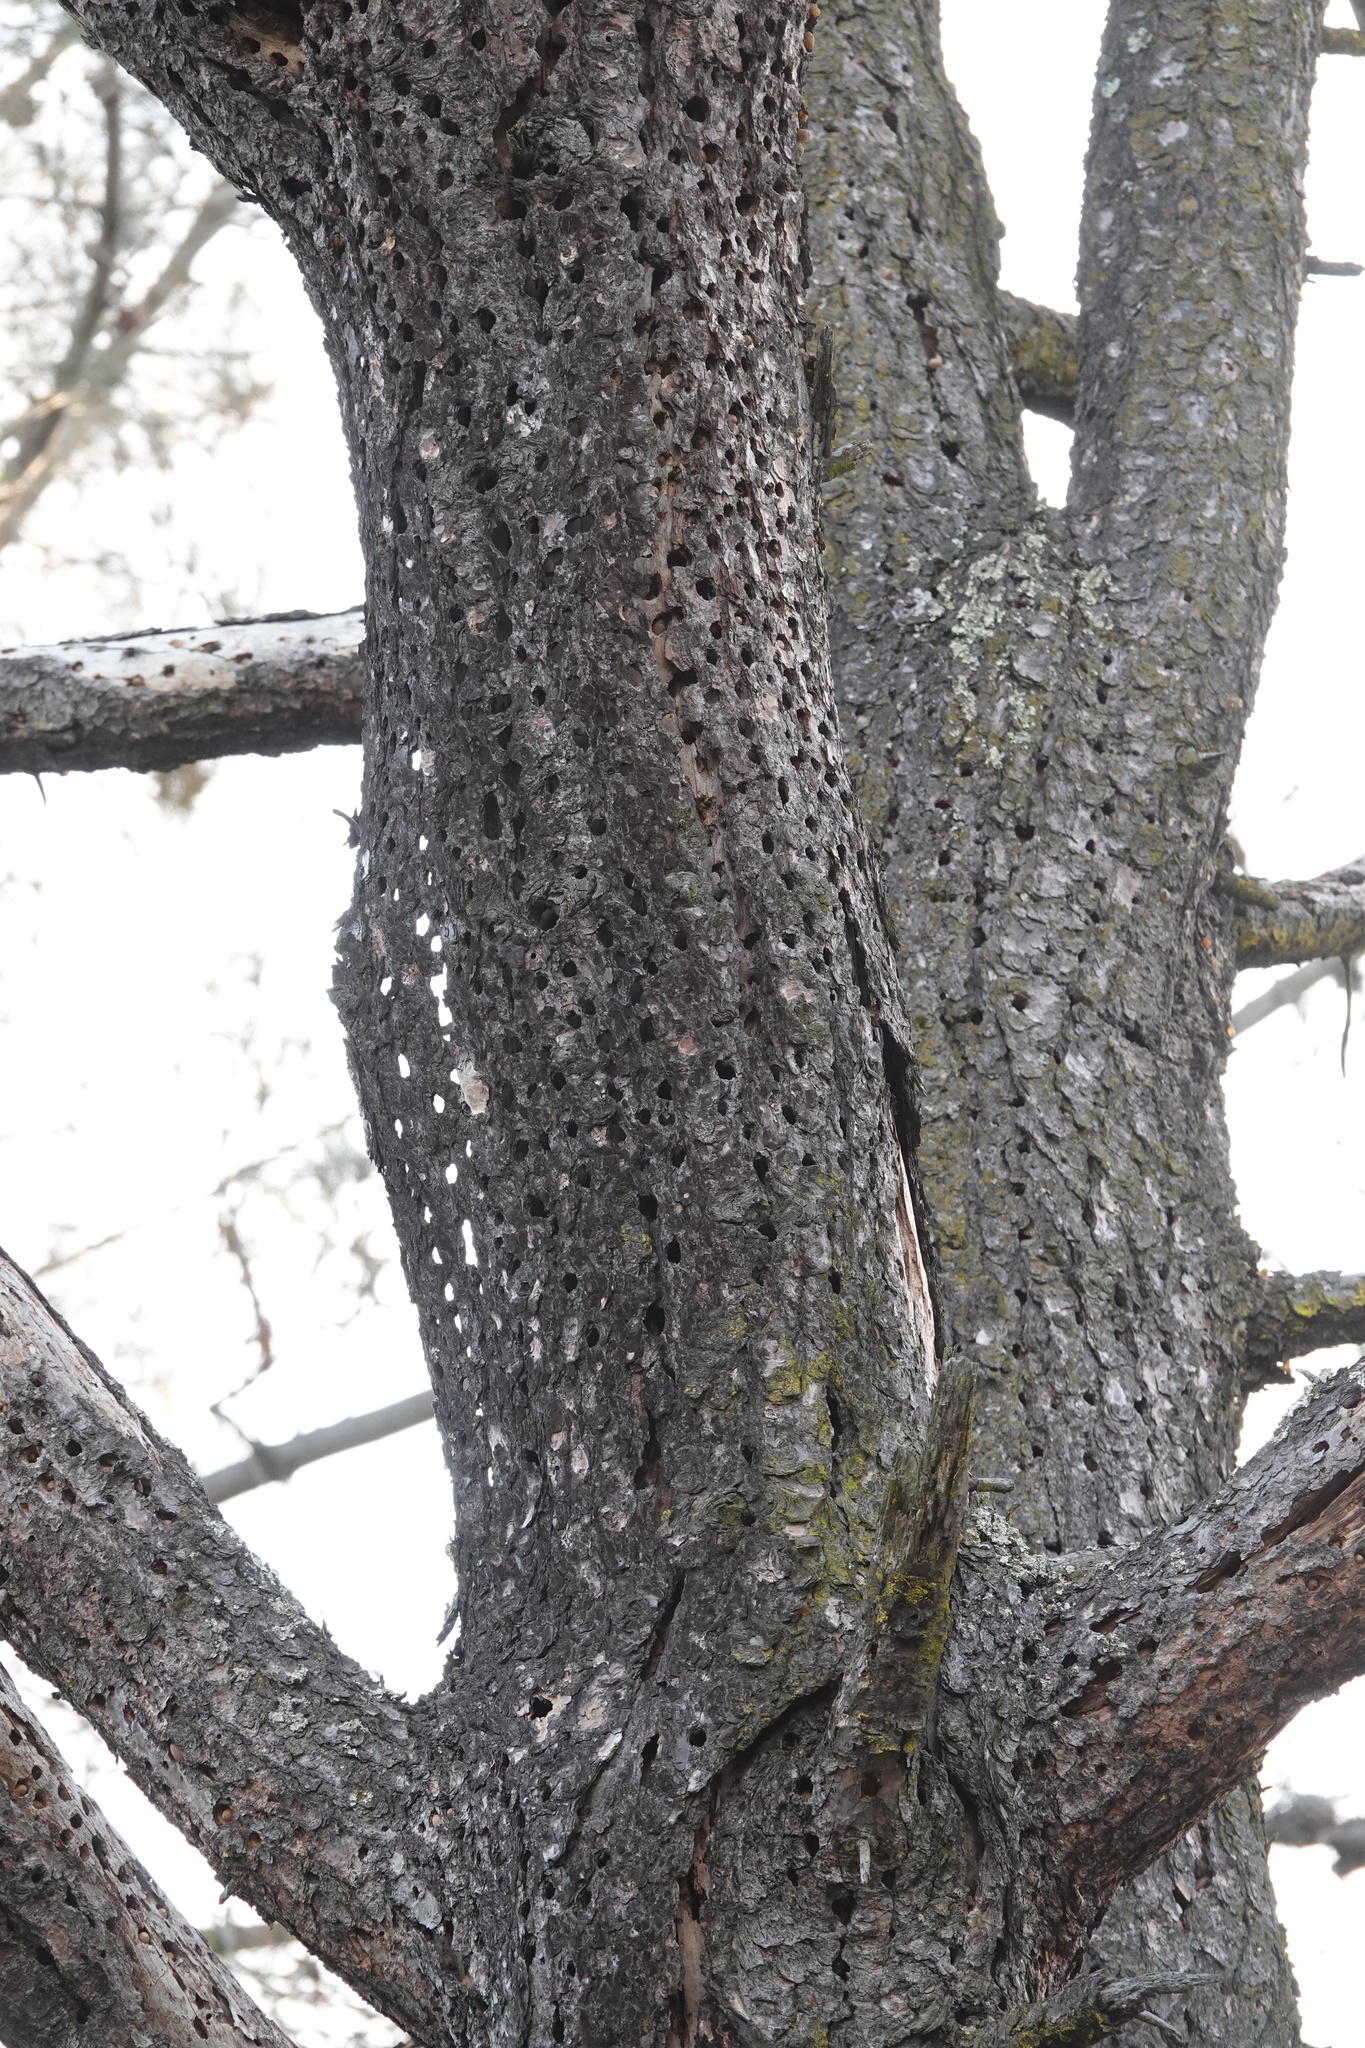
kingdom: Animalia
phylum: Chordata
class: Aves
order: Piciformes
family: Picidae
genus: Melanerpes
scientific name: Melanerpes formicivorus
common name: Acorn woodpecker
